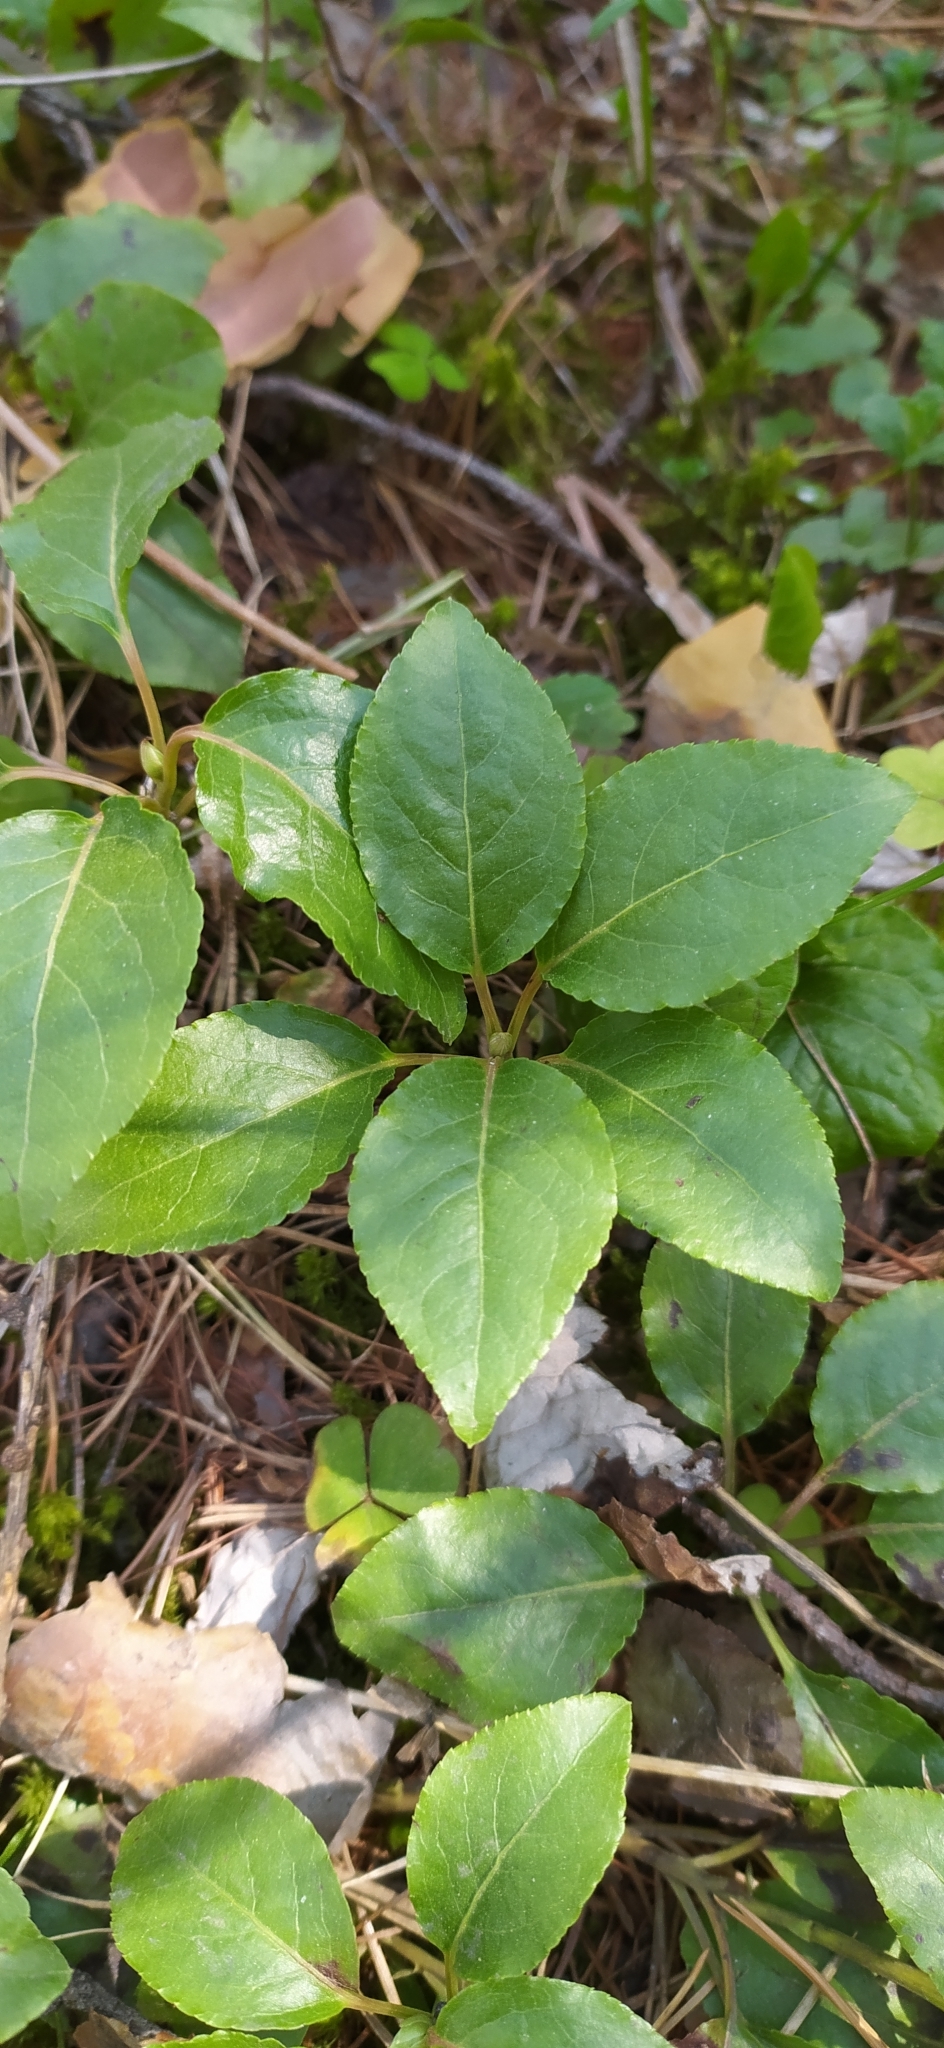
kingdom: Plantae
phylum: Tracheophyta
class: Magnoliopsida
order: Ericales
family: Ericaceae
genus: Orthilia
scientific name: Orthilia secunda
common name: One-sided orthilia
